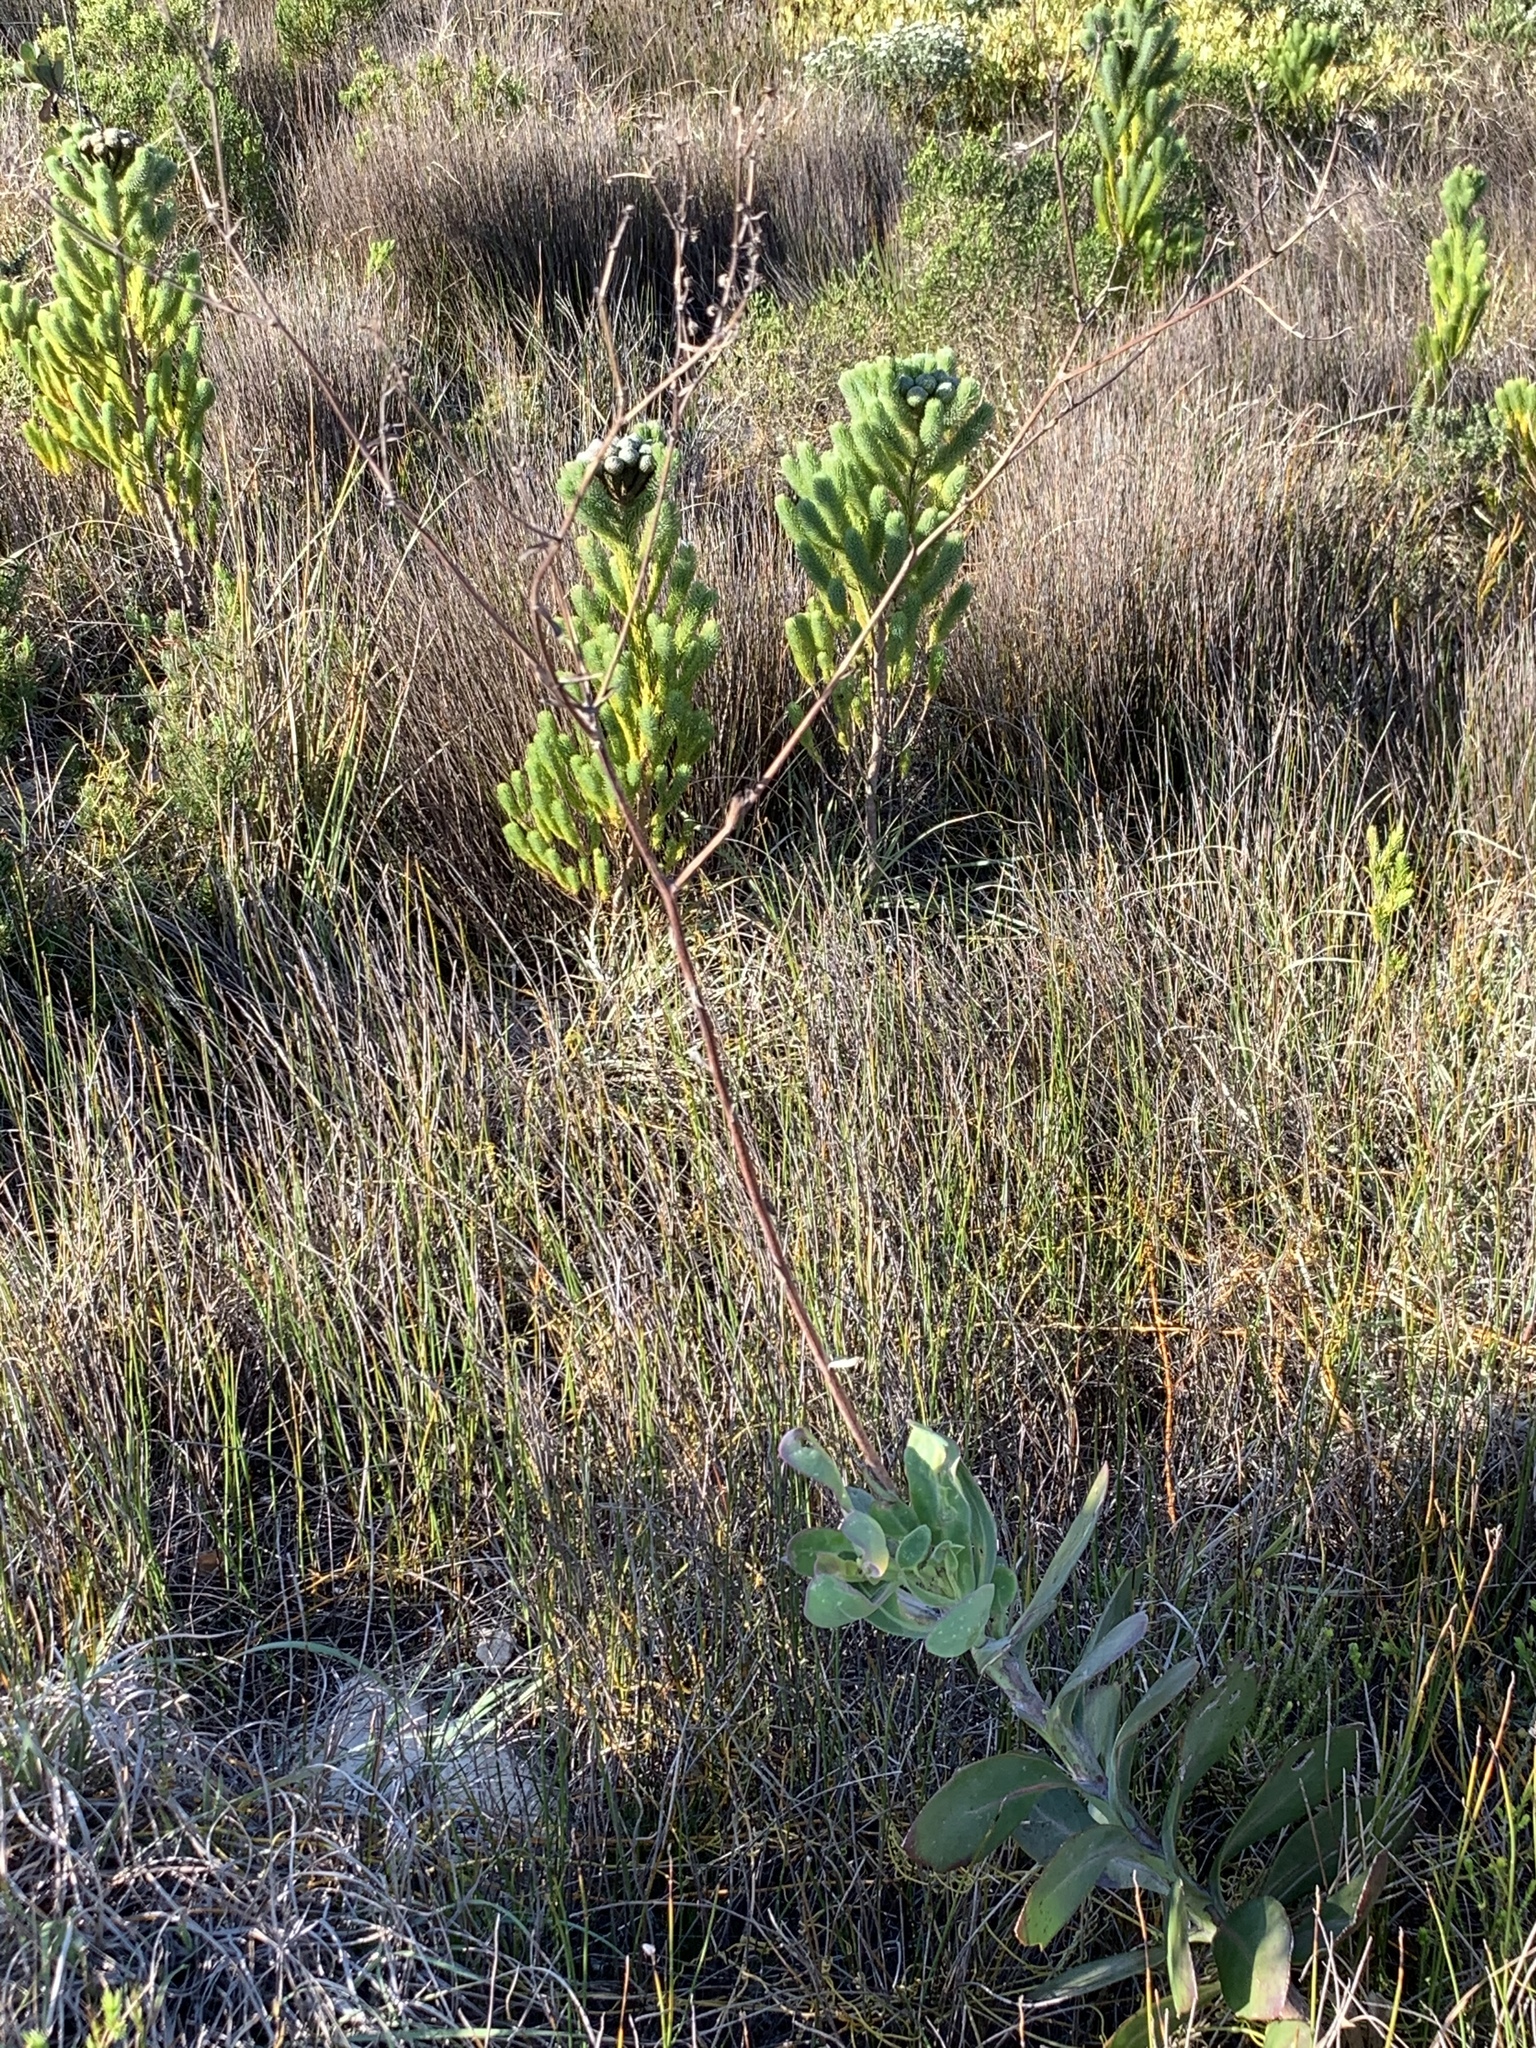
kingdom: Plantae
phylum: Tracheophyta
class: Magnoliopsida
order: Asterales
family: Asteraceae
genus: Othonna
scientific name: Othonna quinquedentata
